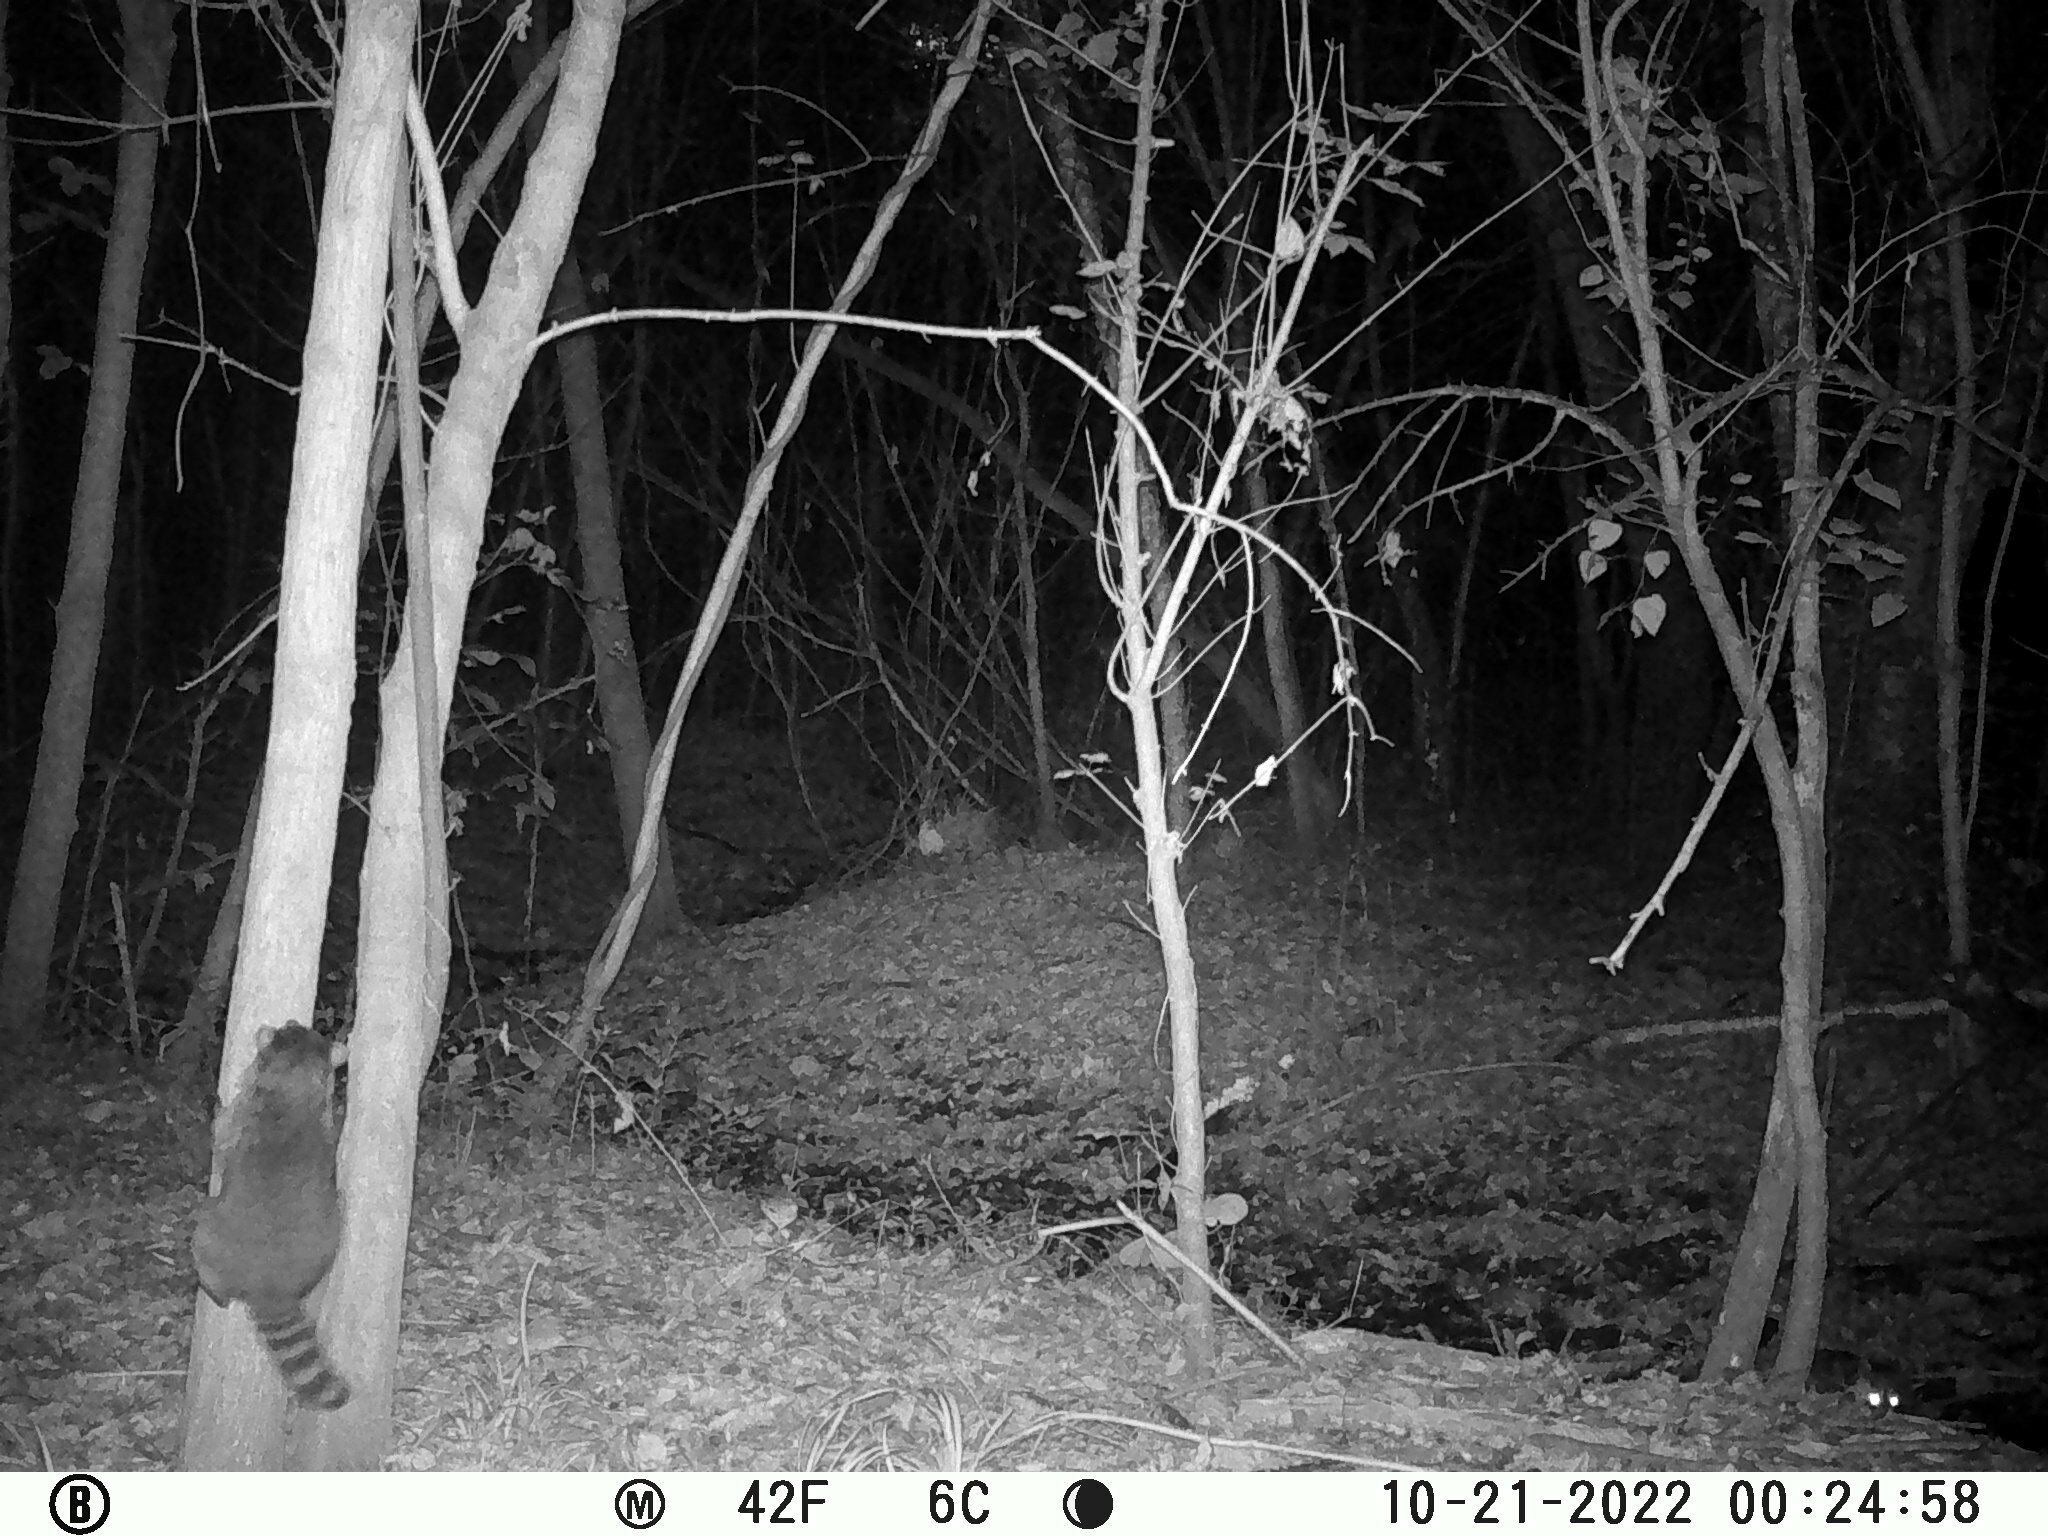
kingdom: Animalia
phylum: Chordata
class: Mammalia
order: Carnivora
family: Procyonidae
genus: Procyon
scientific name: Procyon lotor
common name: Raccoon
